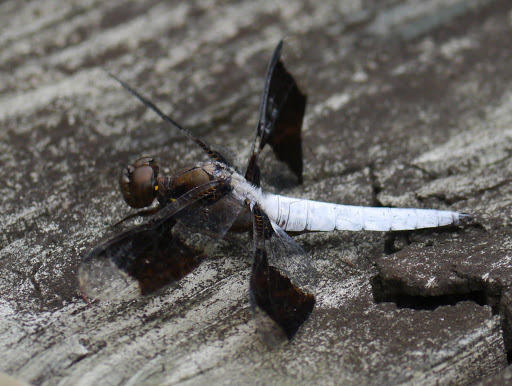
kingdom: Animalia
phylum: Arthropoda
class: Insecta
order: Odonata
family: Libellulidae
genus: Plathemis
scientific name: Plathemis lydia
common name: Common whitetail
